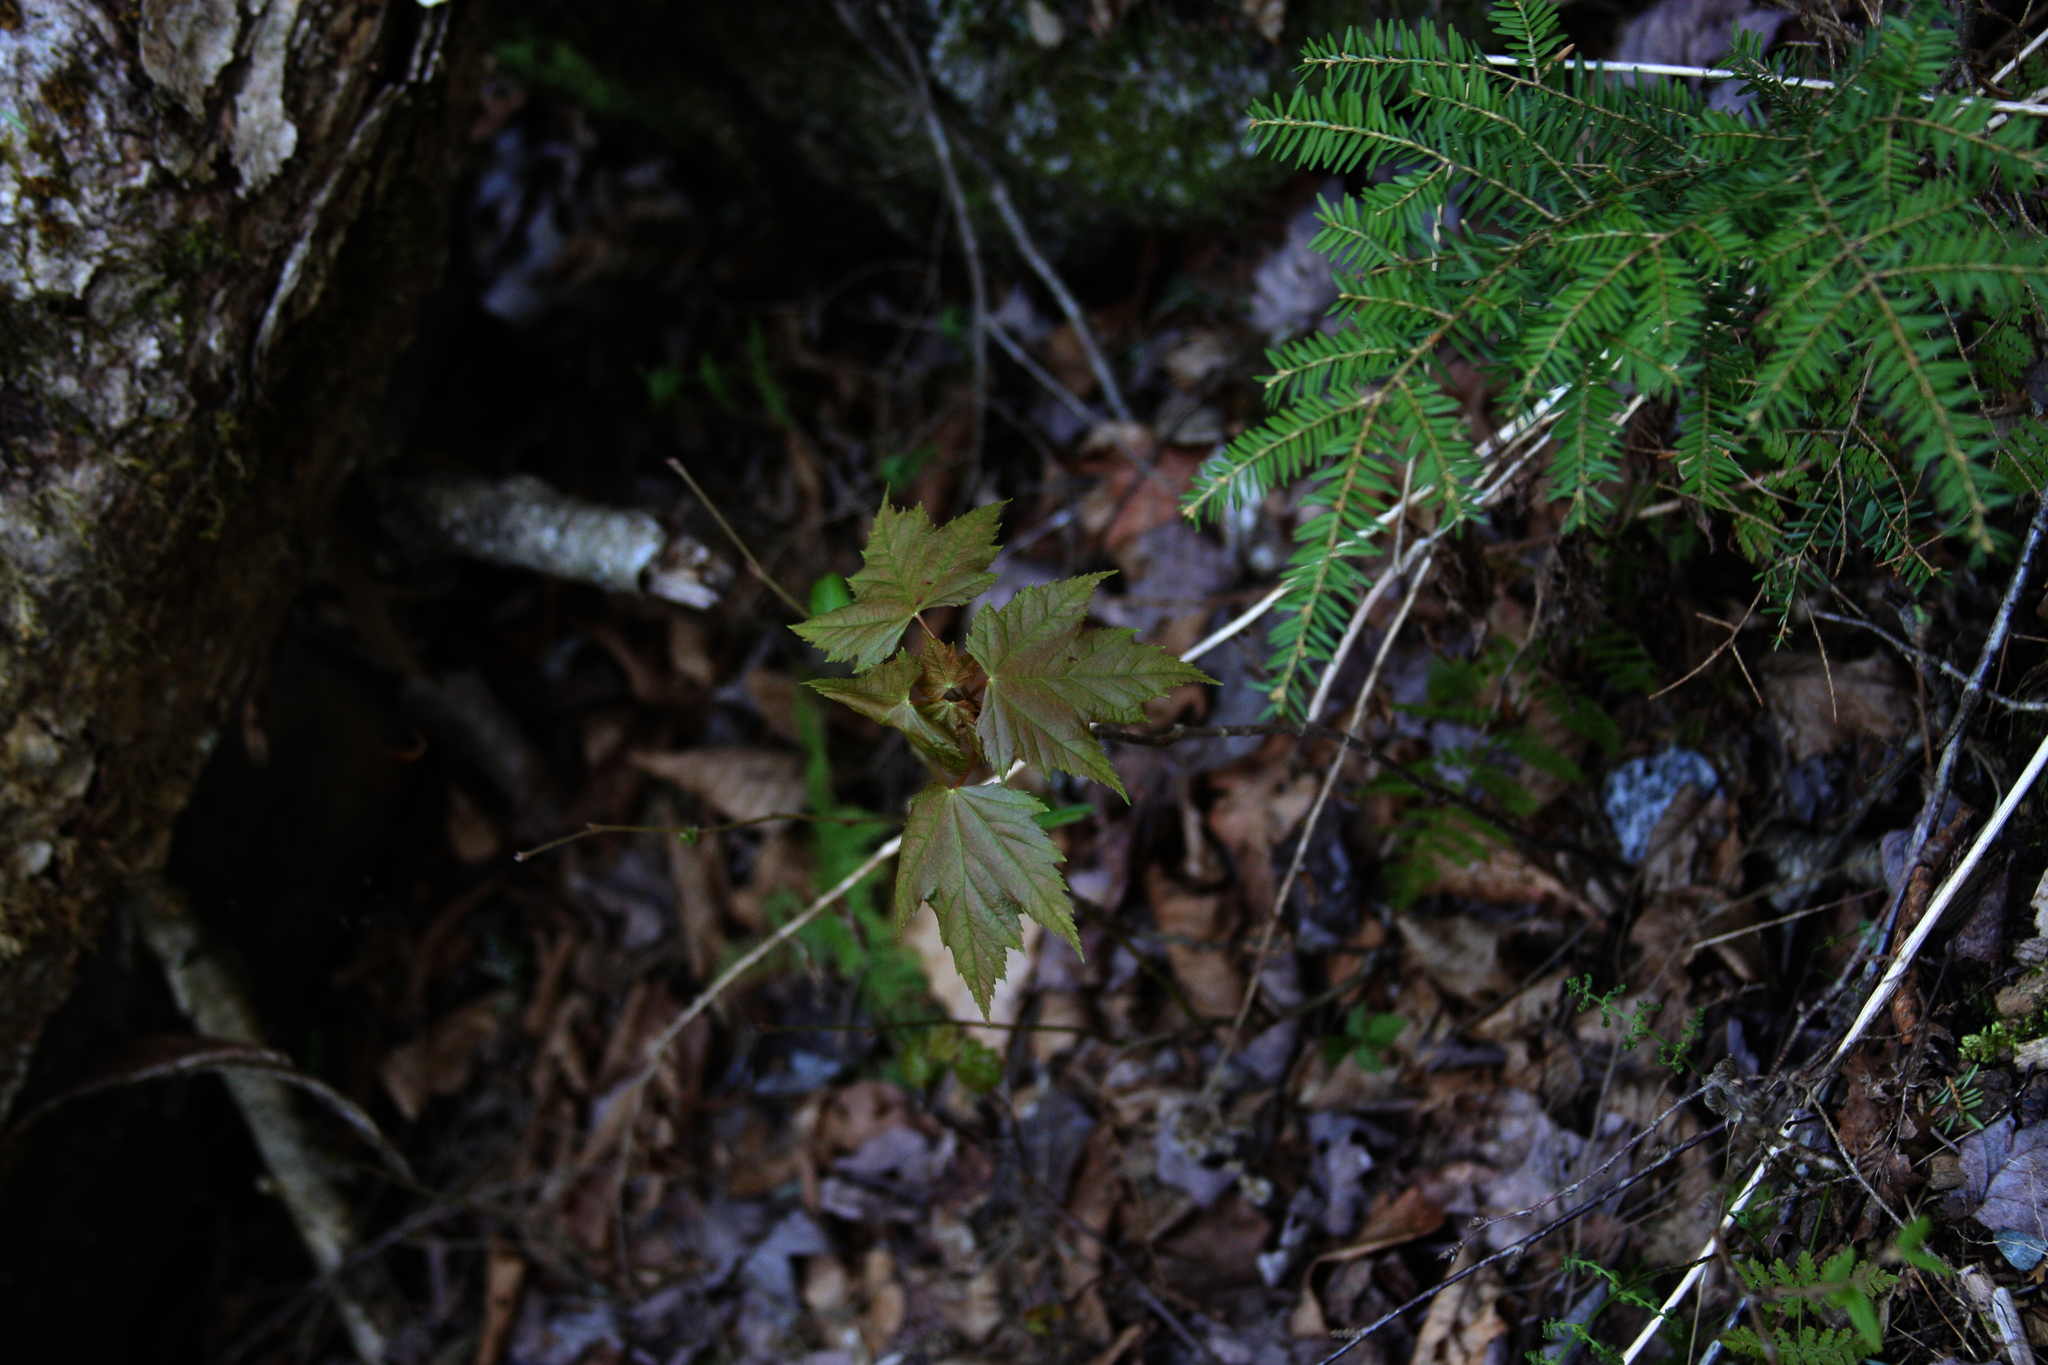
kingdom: Plantae
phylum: Tracheophyta
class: Pinopsida
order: Pinales
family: Pinaceae
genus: Tsuga
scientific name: Tsuga canadensis
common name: Eastern hemlock
